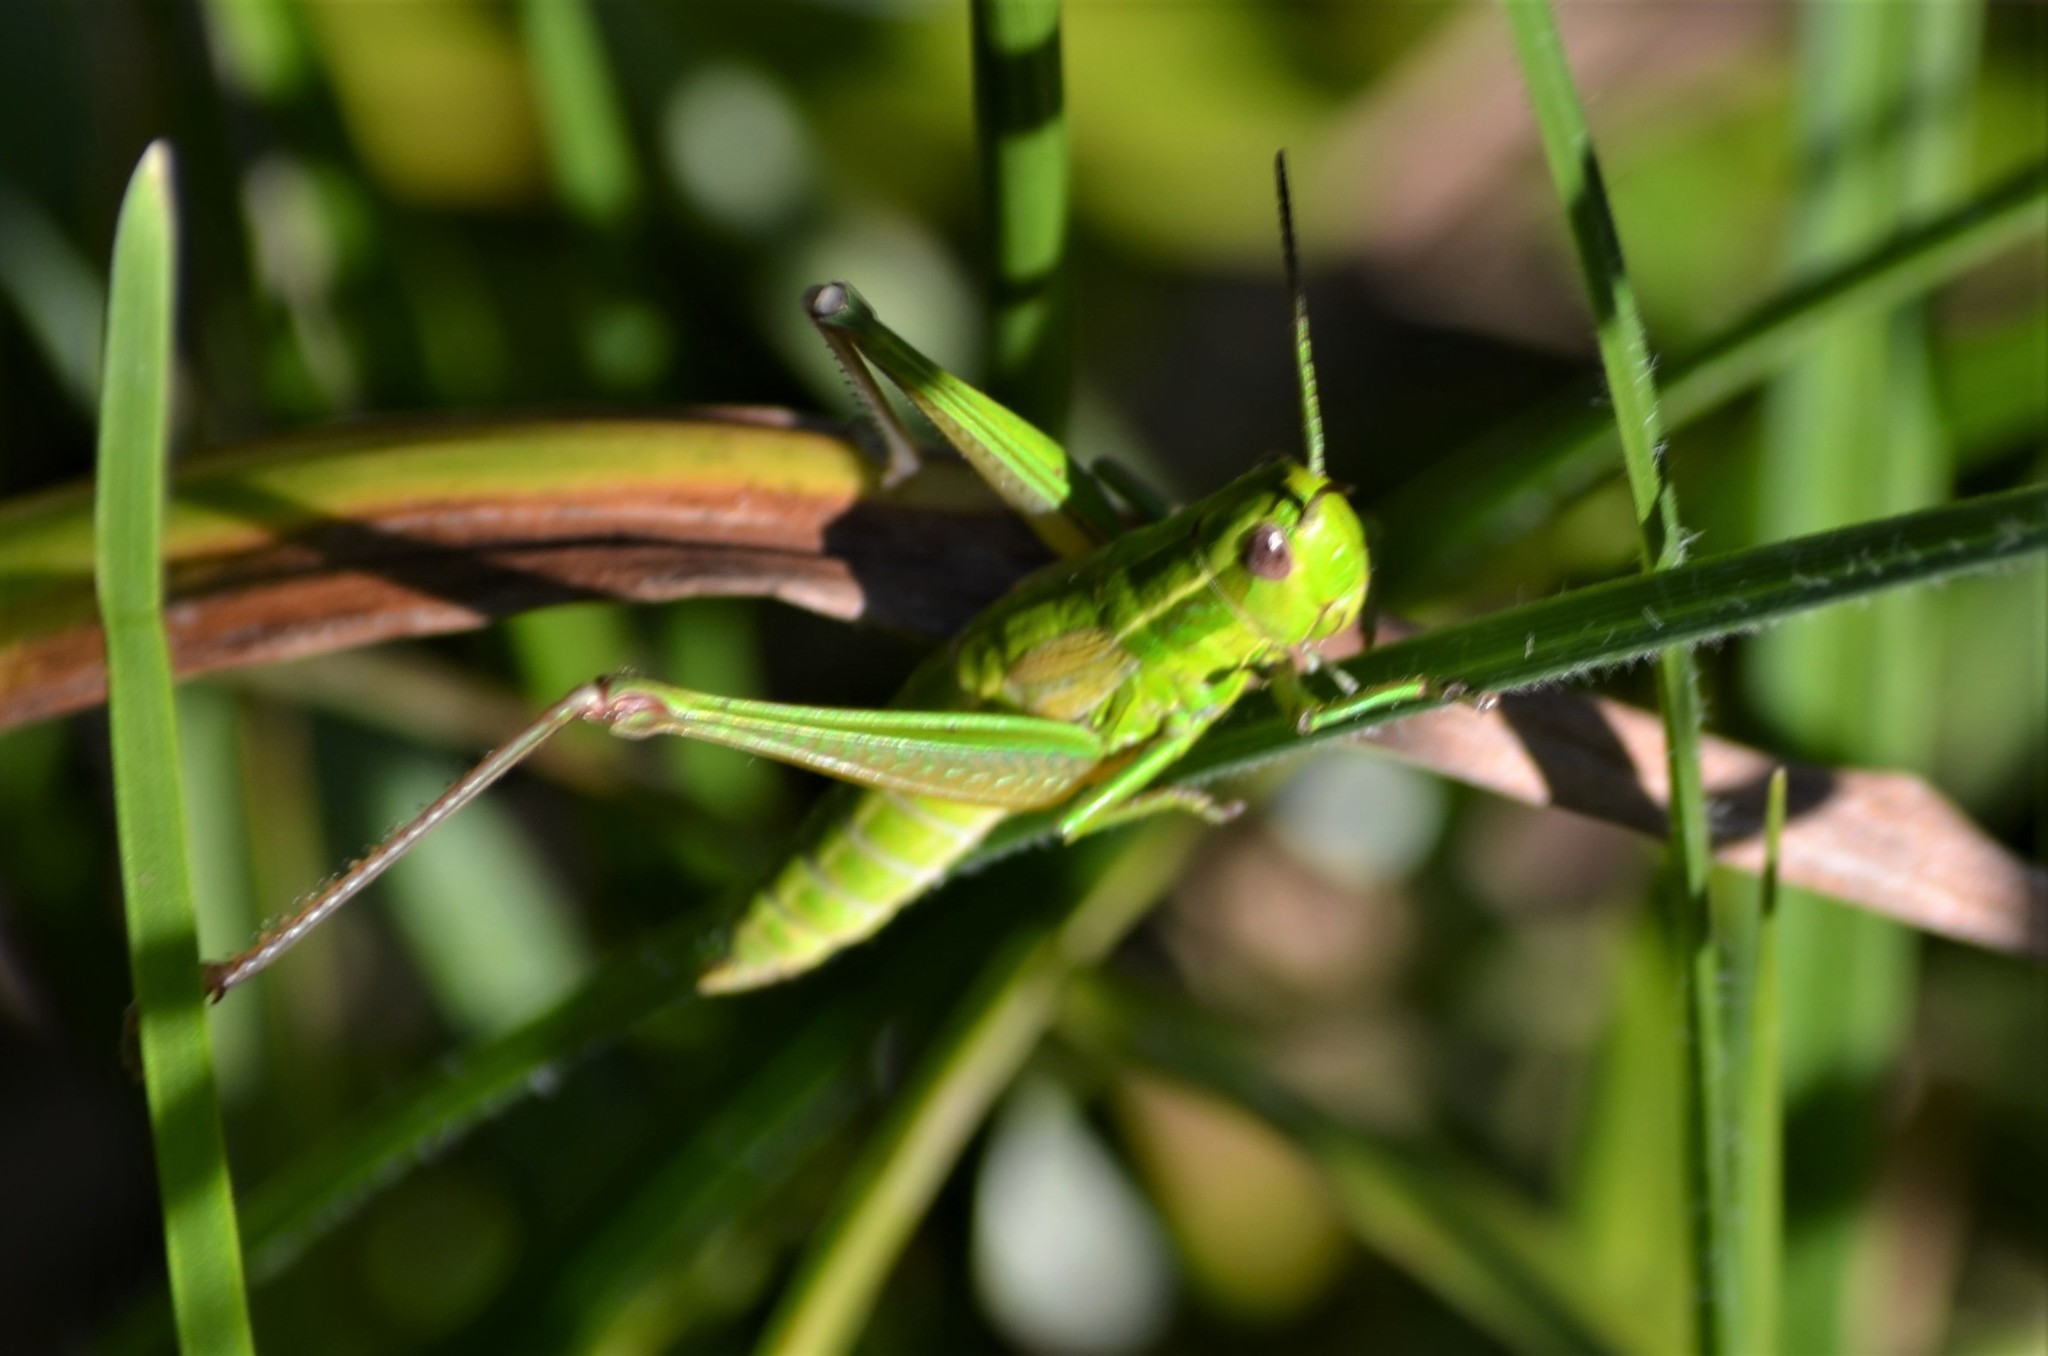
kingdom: Animalia
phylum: Arthropoda
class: Insecta
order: Orthoptera
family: Acrididae
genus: Euthystira
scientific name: Euthystira brachyptera
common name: Small gold grasshopper
